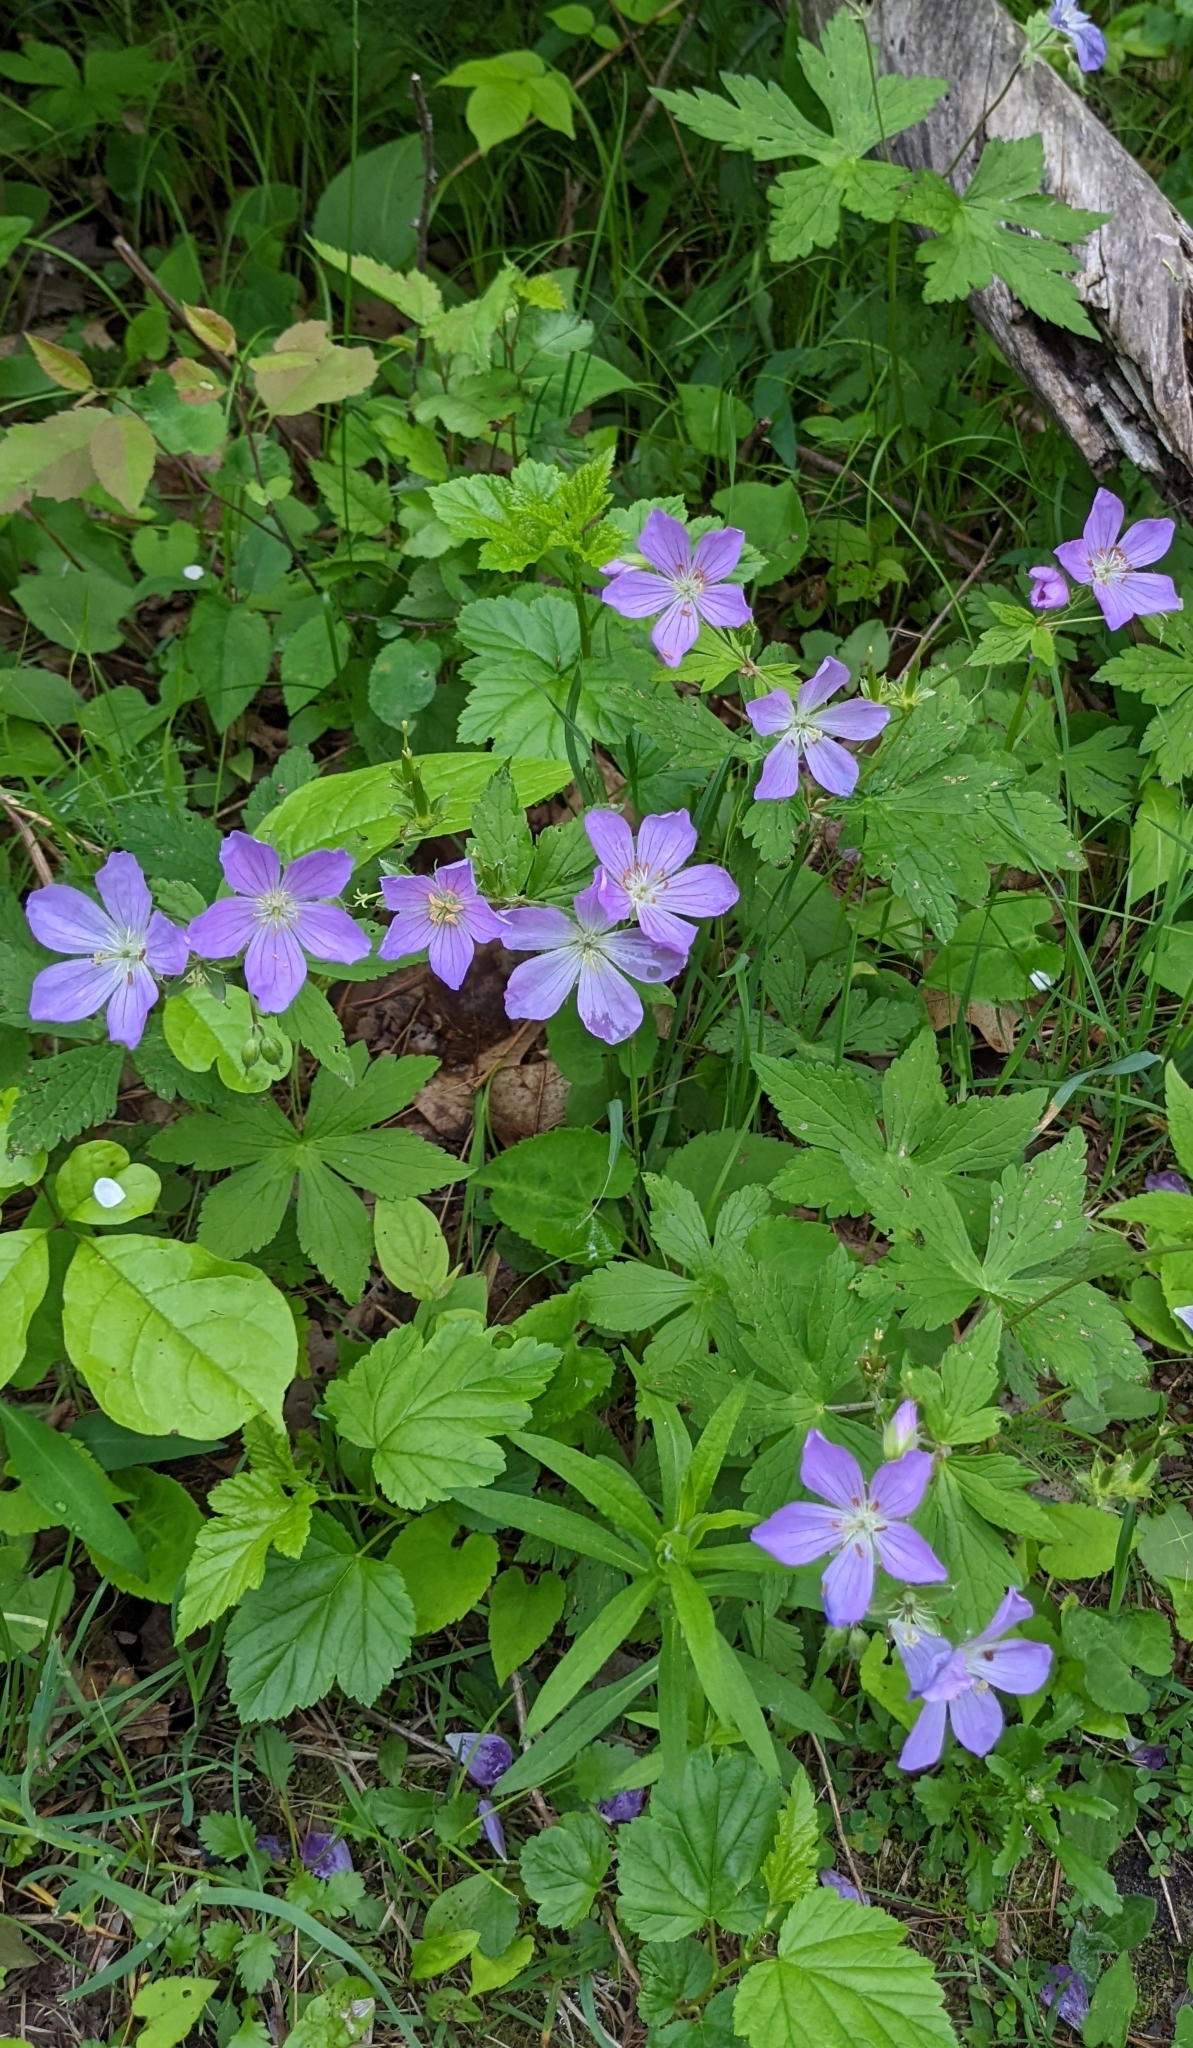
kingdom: Plantae
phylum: Tracheophyta
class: Magnoliopsida
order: Geraniales
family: Geraniaceae
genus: Geranium
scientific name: Geranium maculatum
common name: Spotted geranium
